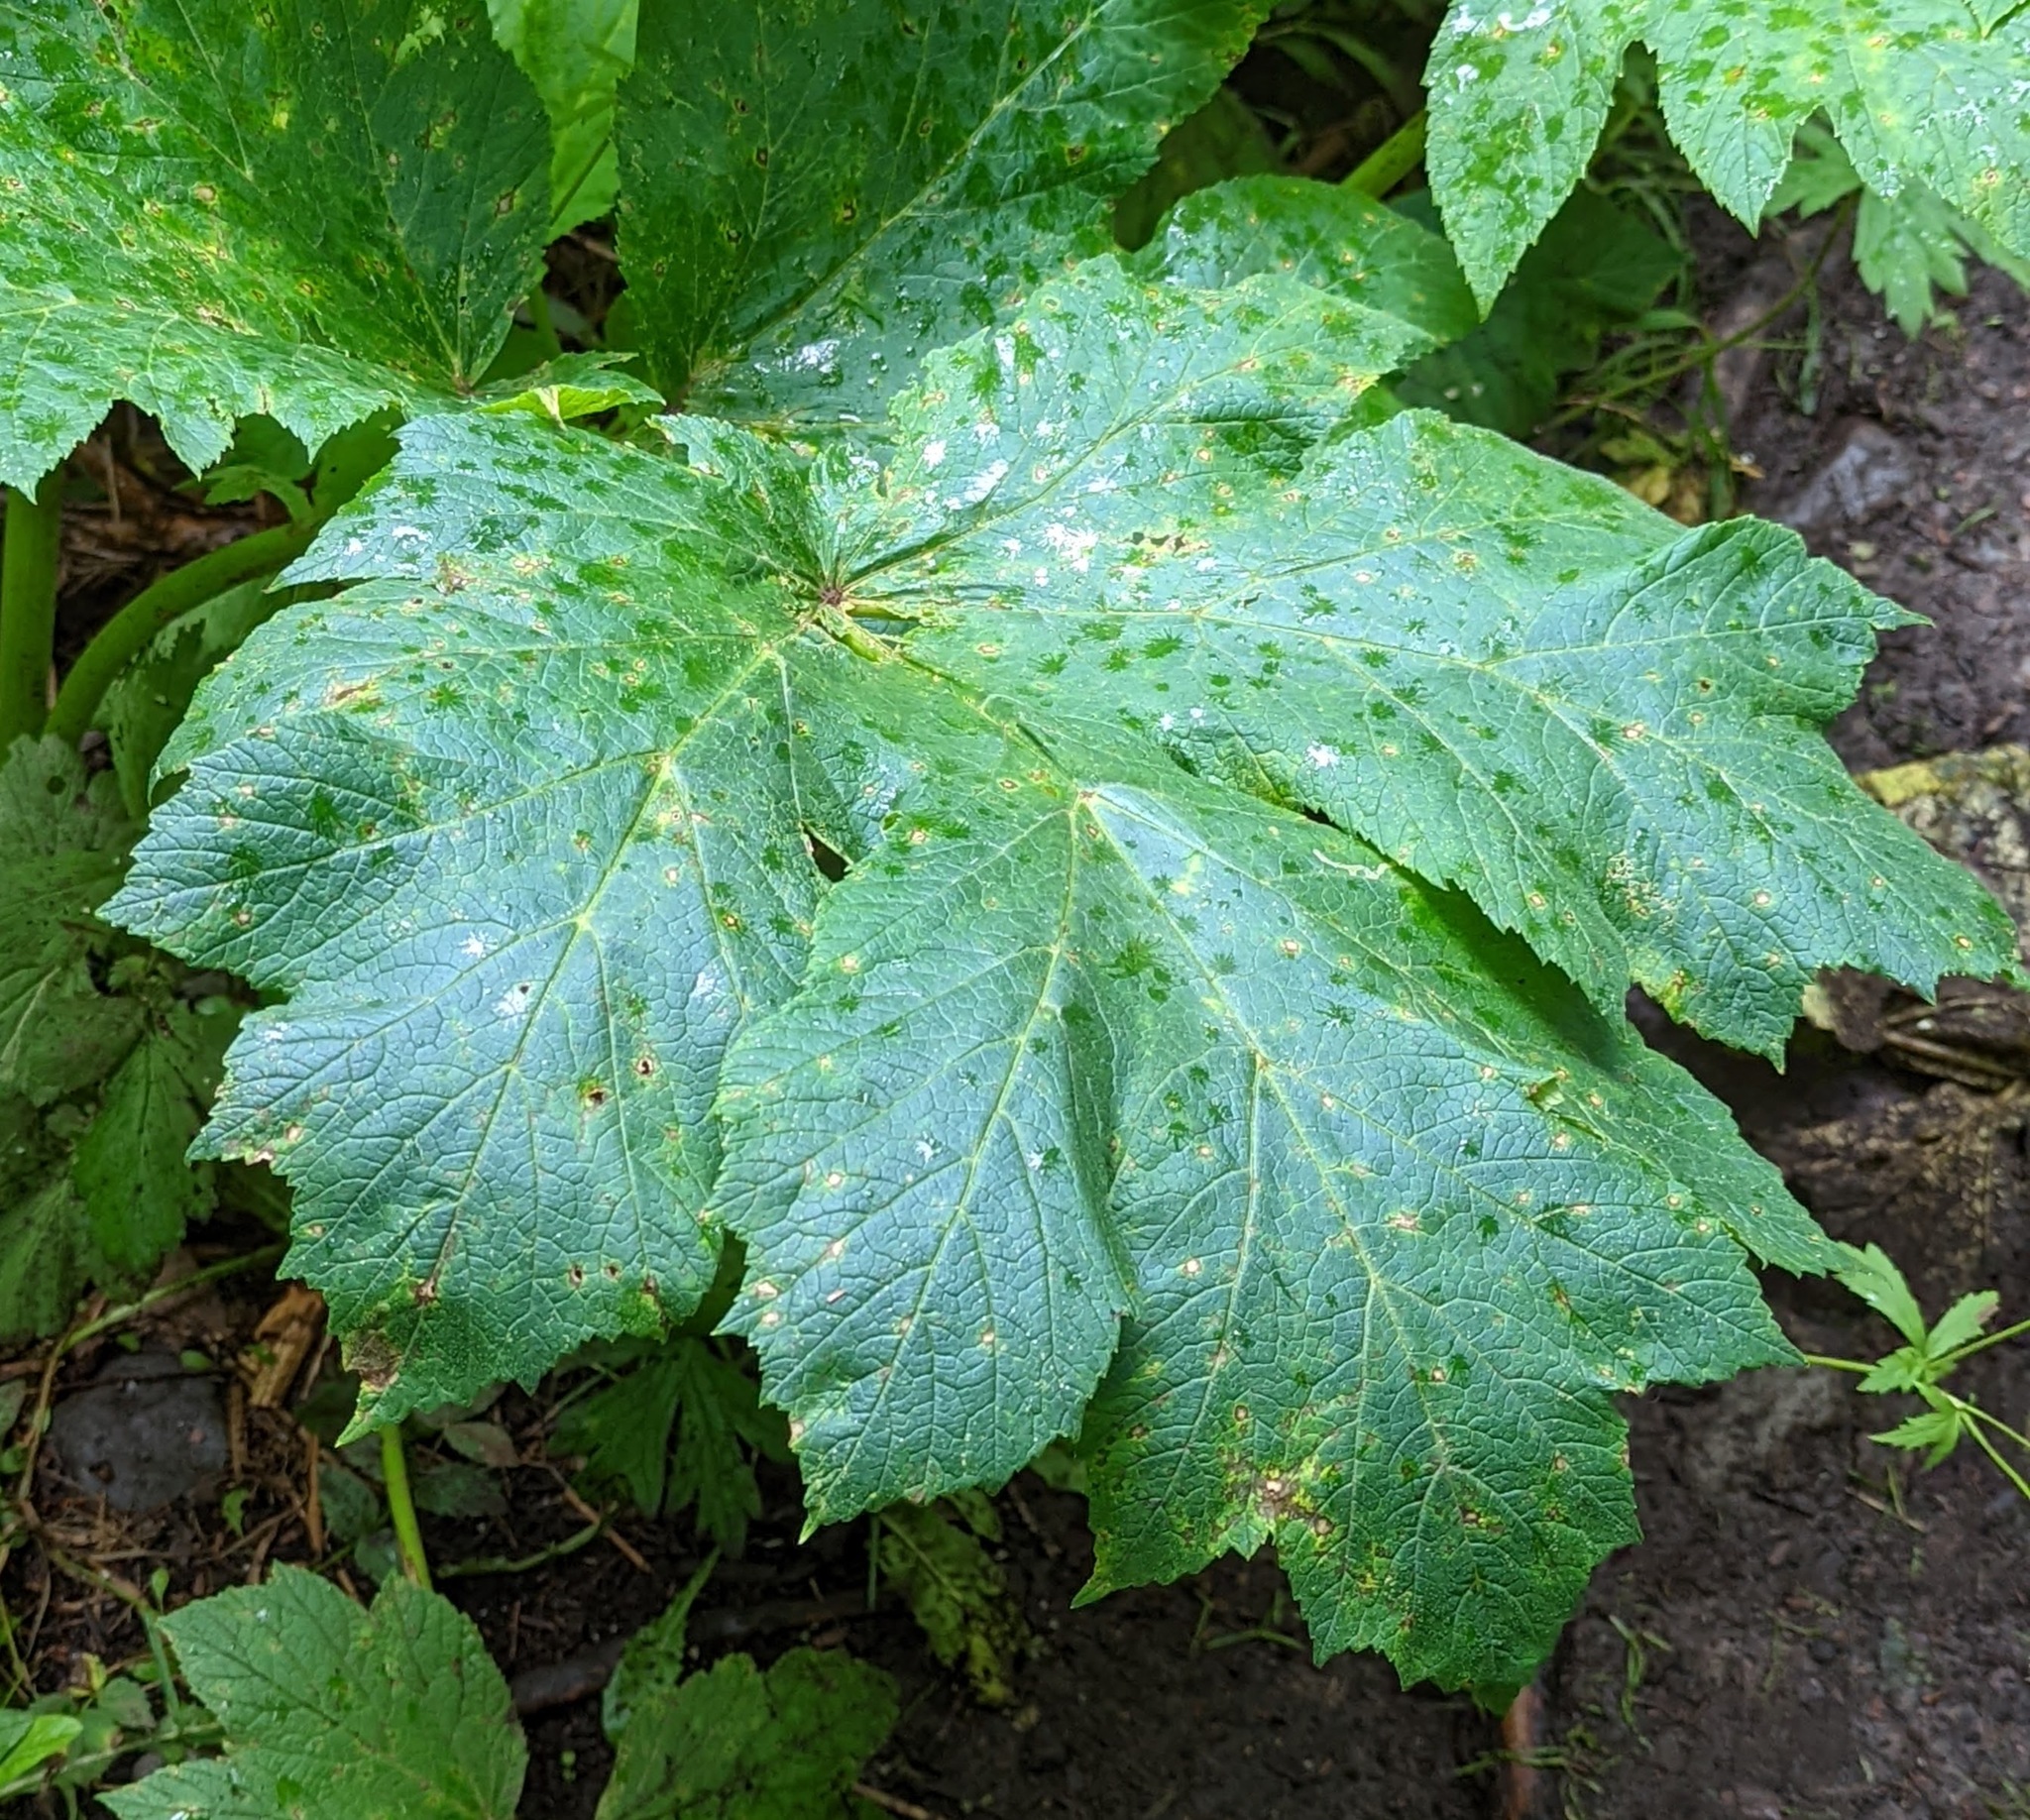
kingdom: Plantae
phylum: Tracheophyta
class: Magnoliopsida
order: Apiales
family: Apiaceae
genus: Heracleum
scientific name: Heracleum maximum
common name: American cow parsnip
